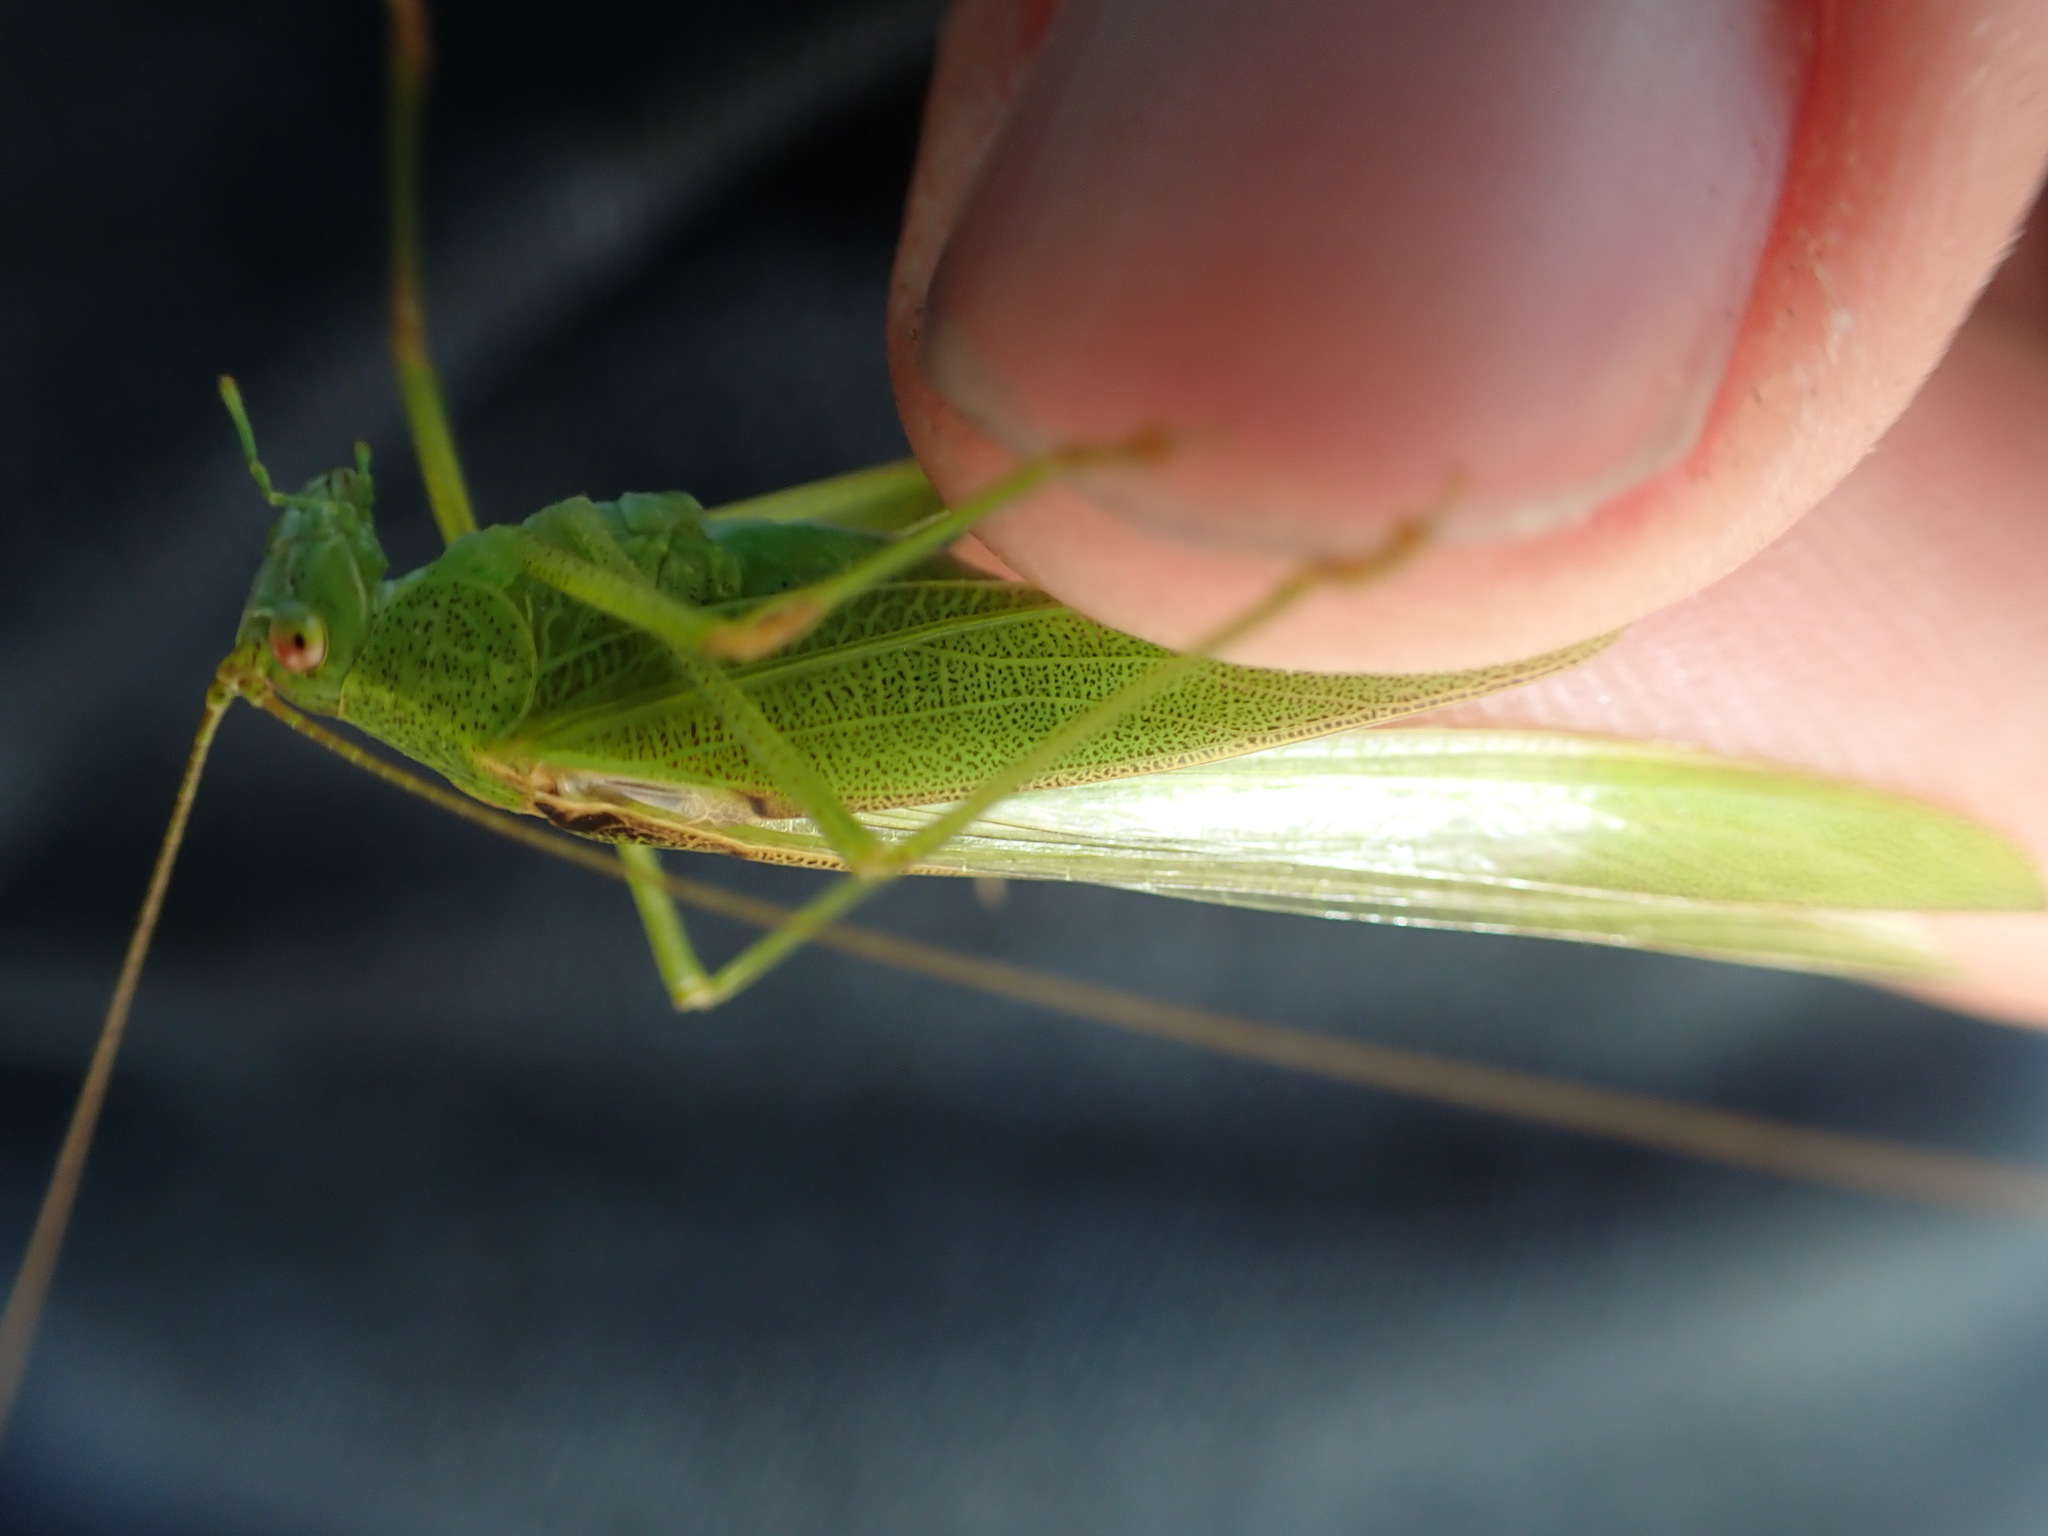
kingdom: Animalia
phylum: Arthropoda
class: Insecta
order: Orthoptera
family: Tettigoniidae
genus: Phaneroptera
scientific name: Phaneroptera falcata
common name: Sickle-bearing bush-cricket
